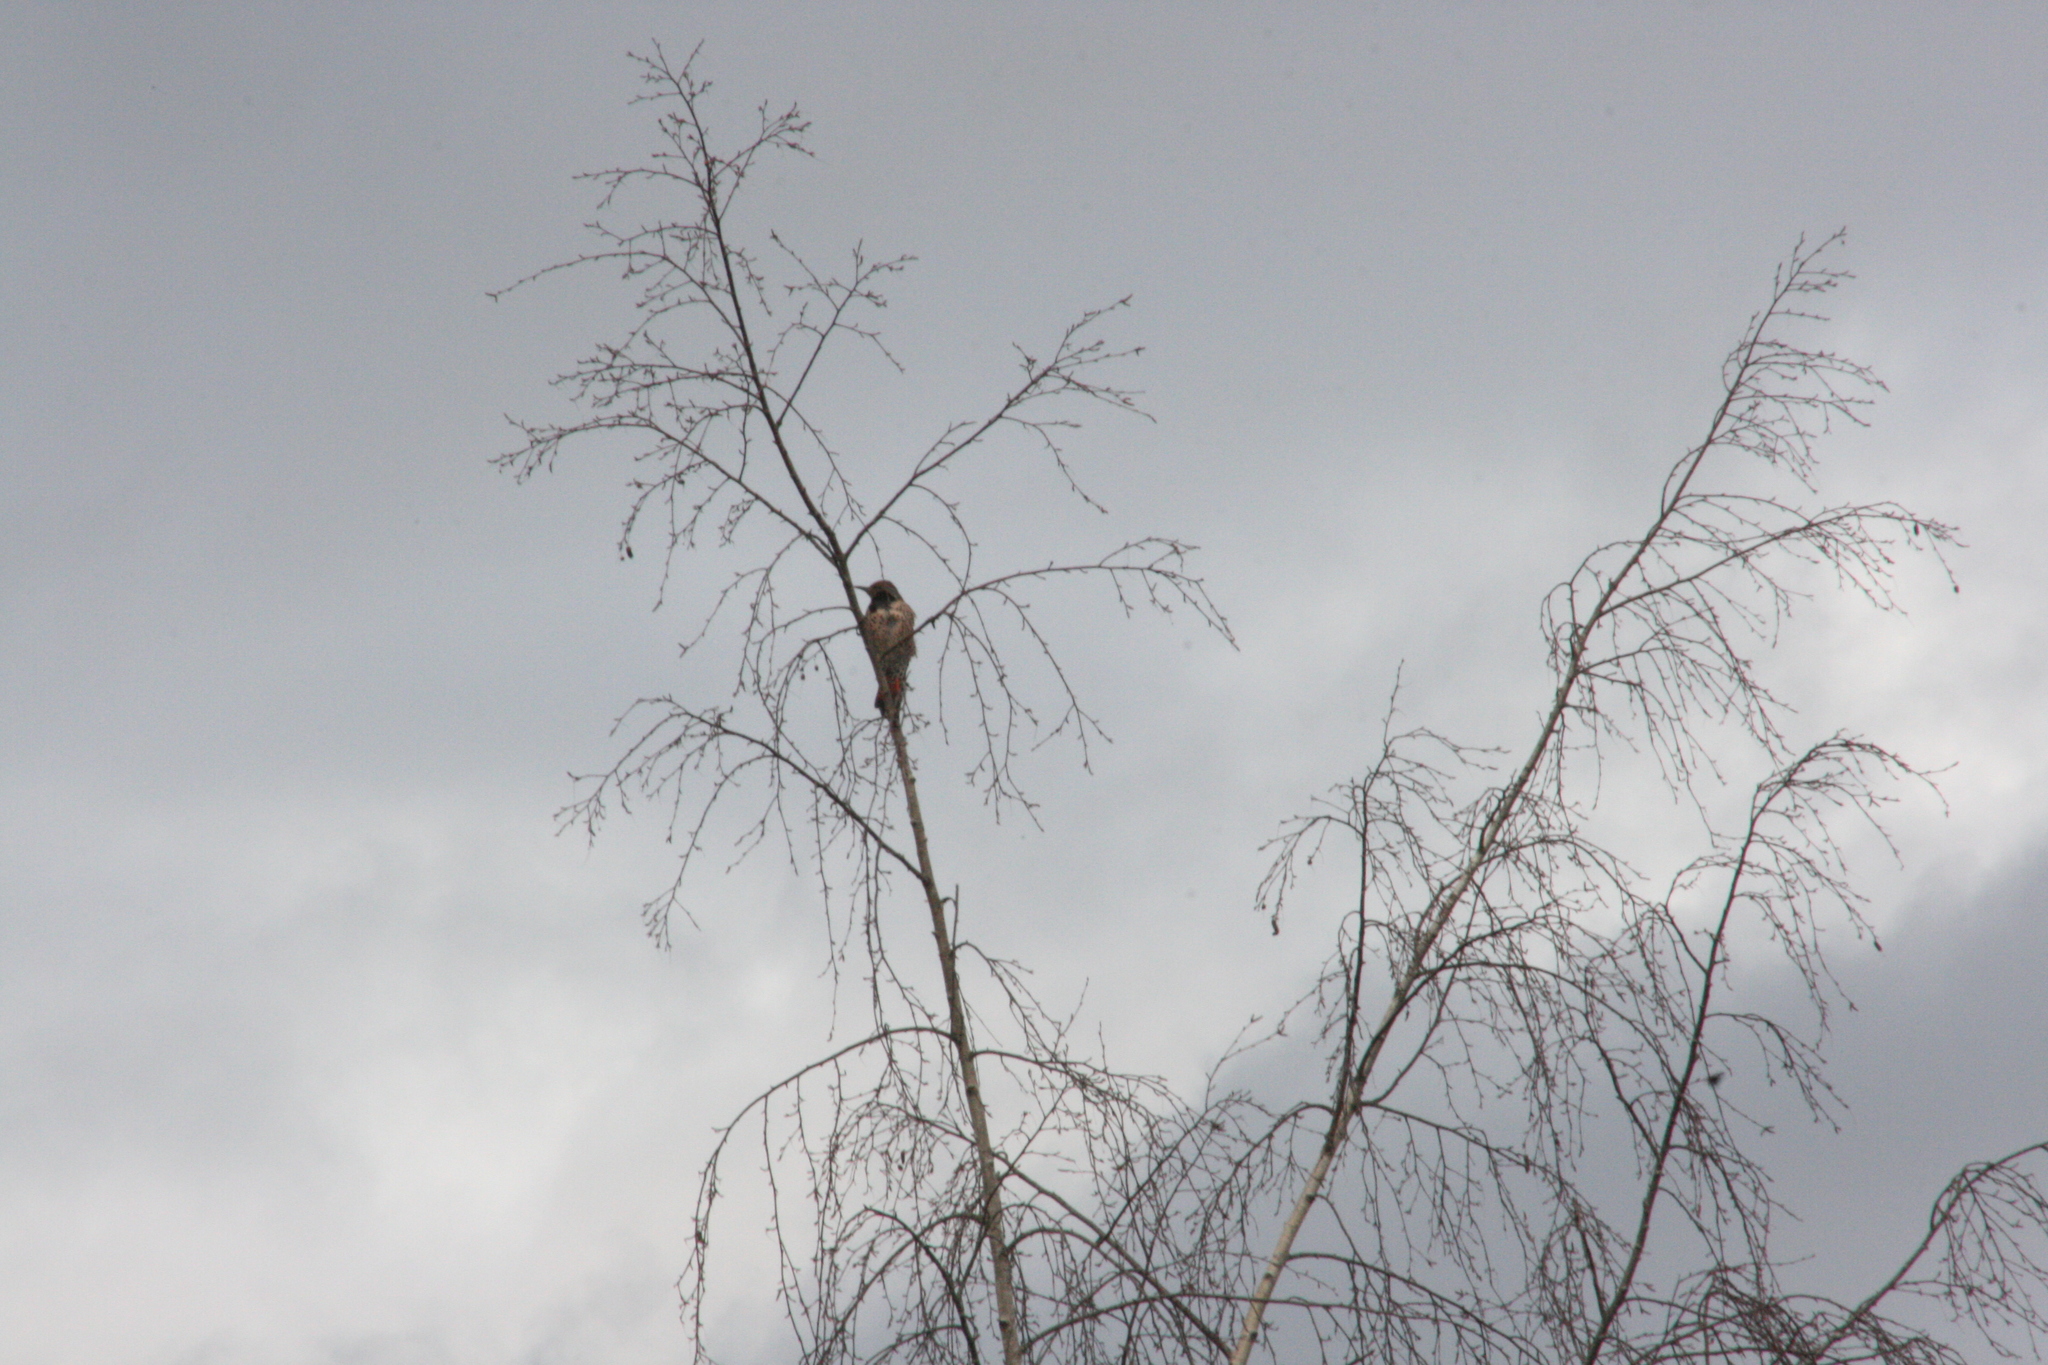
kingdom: Animalia
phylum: Chordata
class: Aves
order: Piciformes
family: Picidae
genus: Colaptes
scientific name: Colaptes auratus
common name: Northern flicker
